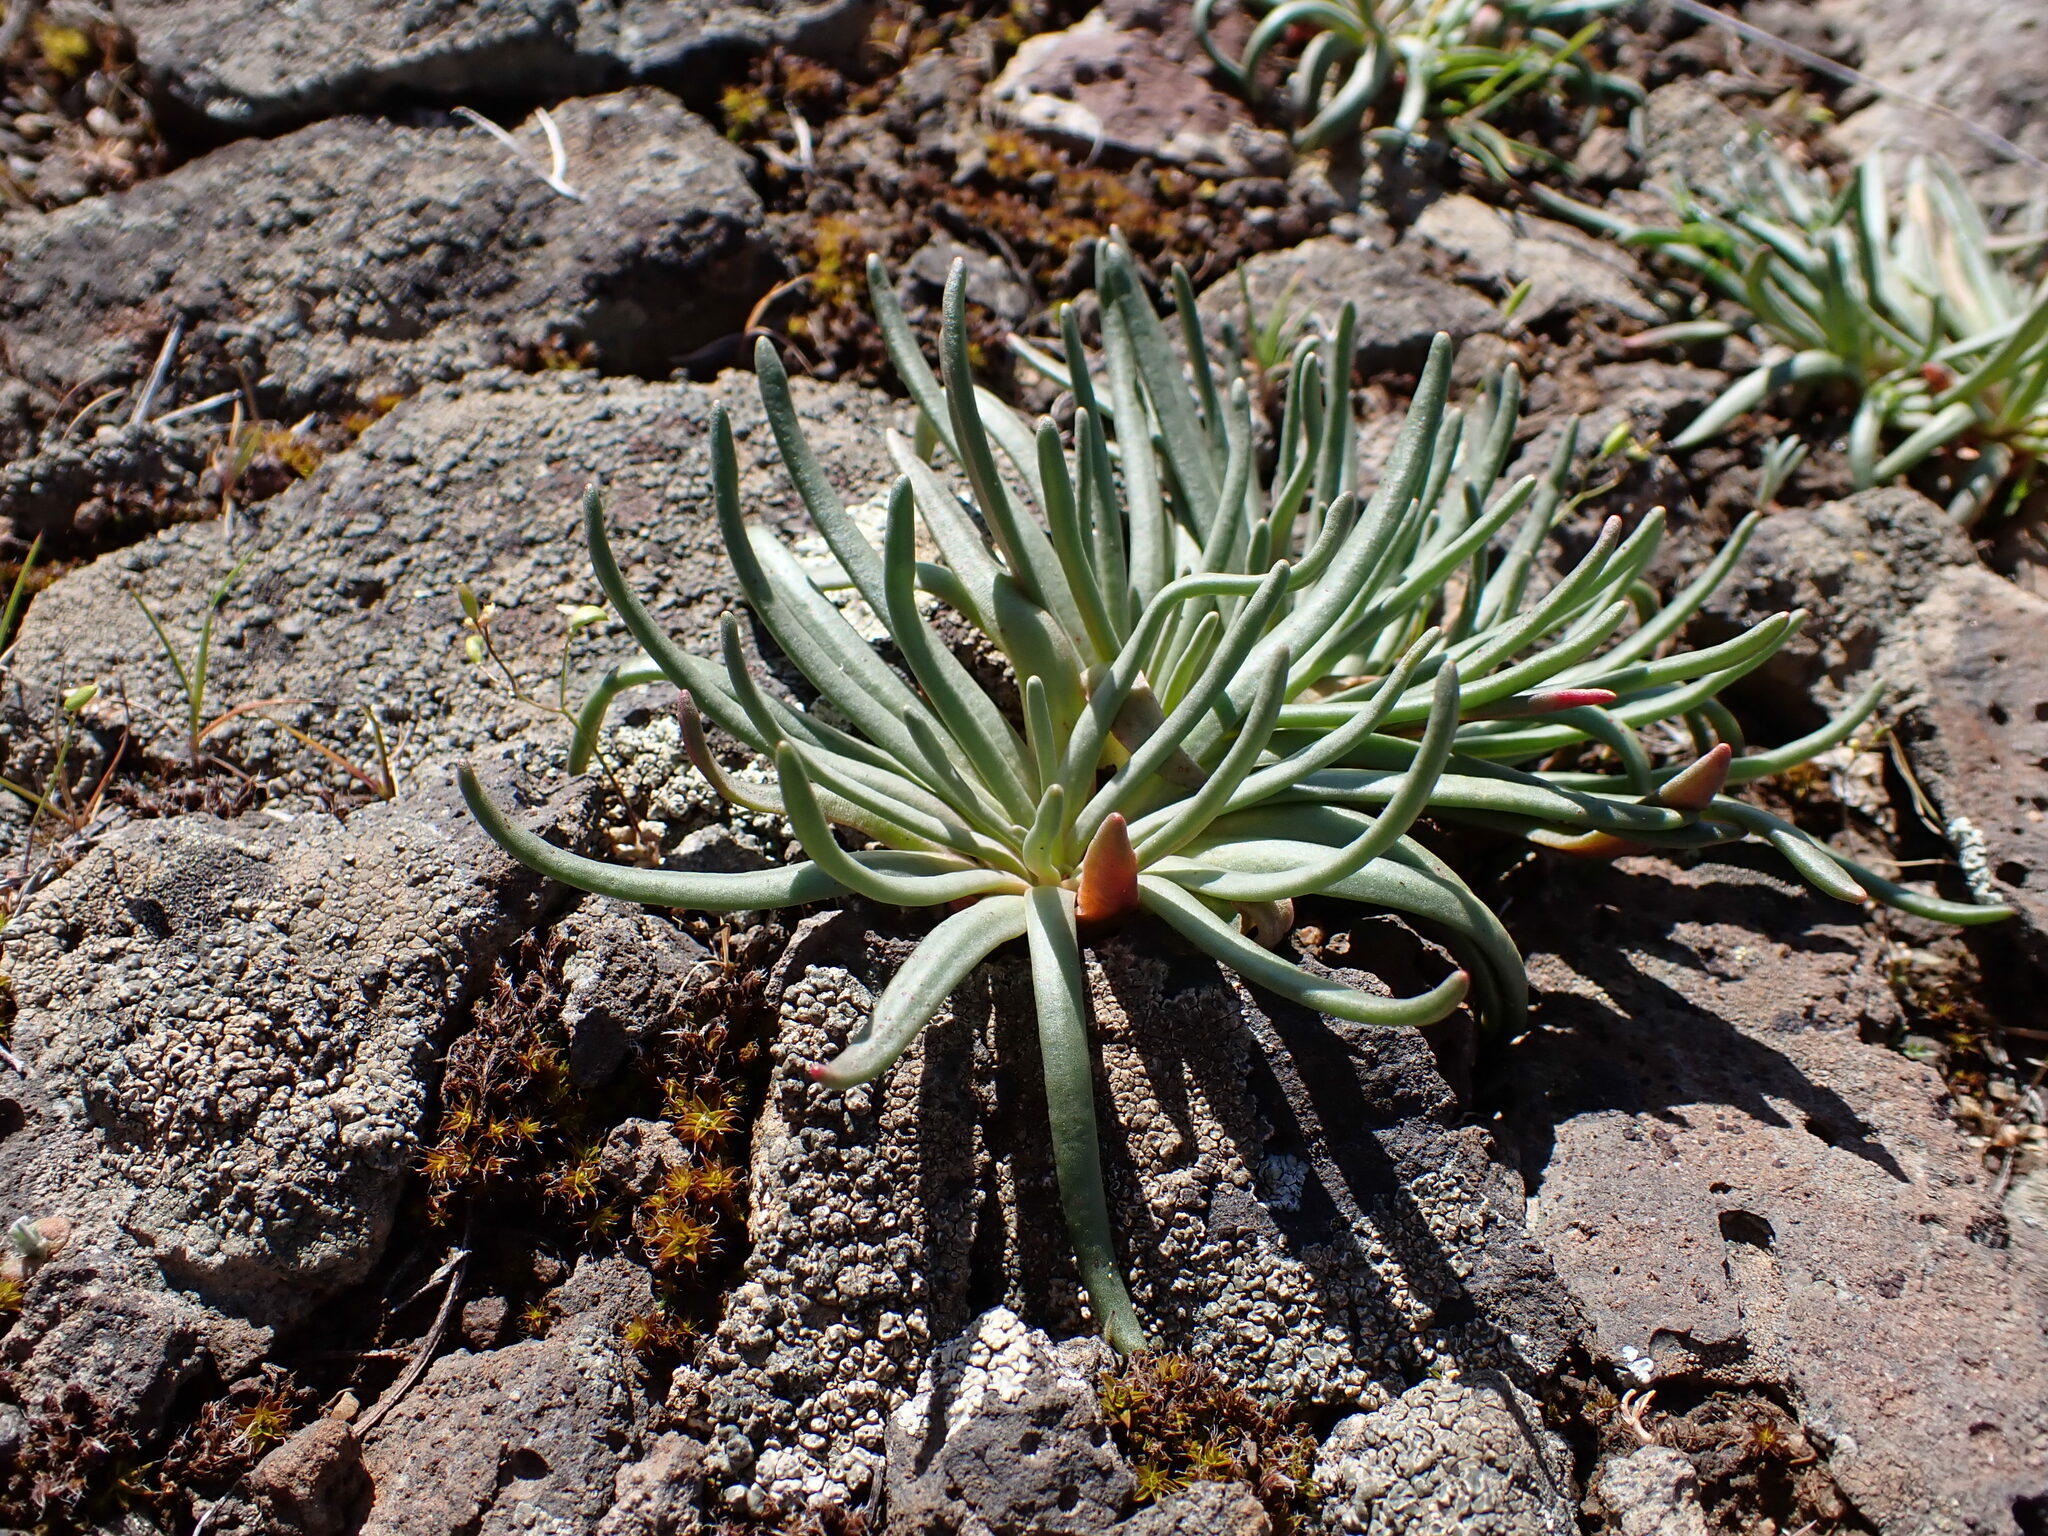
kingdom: Plantae
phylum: Tracheophyta
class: Magnoliopsida
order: Caryophyllales
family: Montiaceae
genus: Lewisia
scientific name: Lewisia rediviva
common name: Bitter-root
